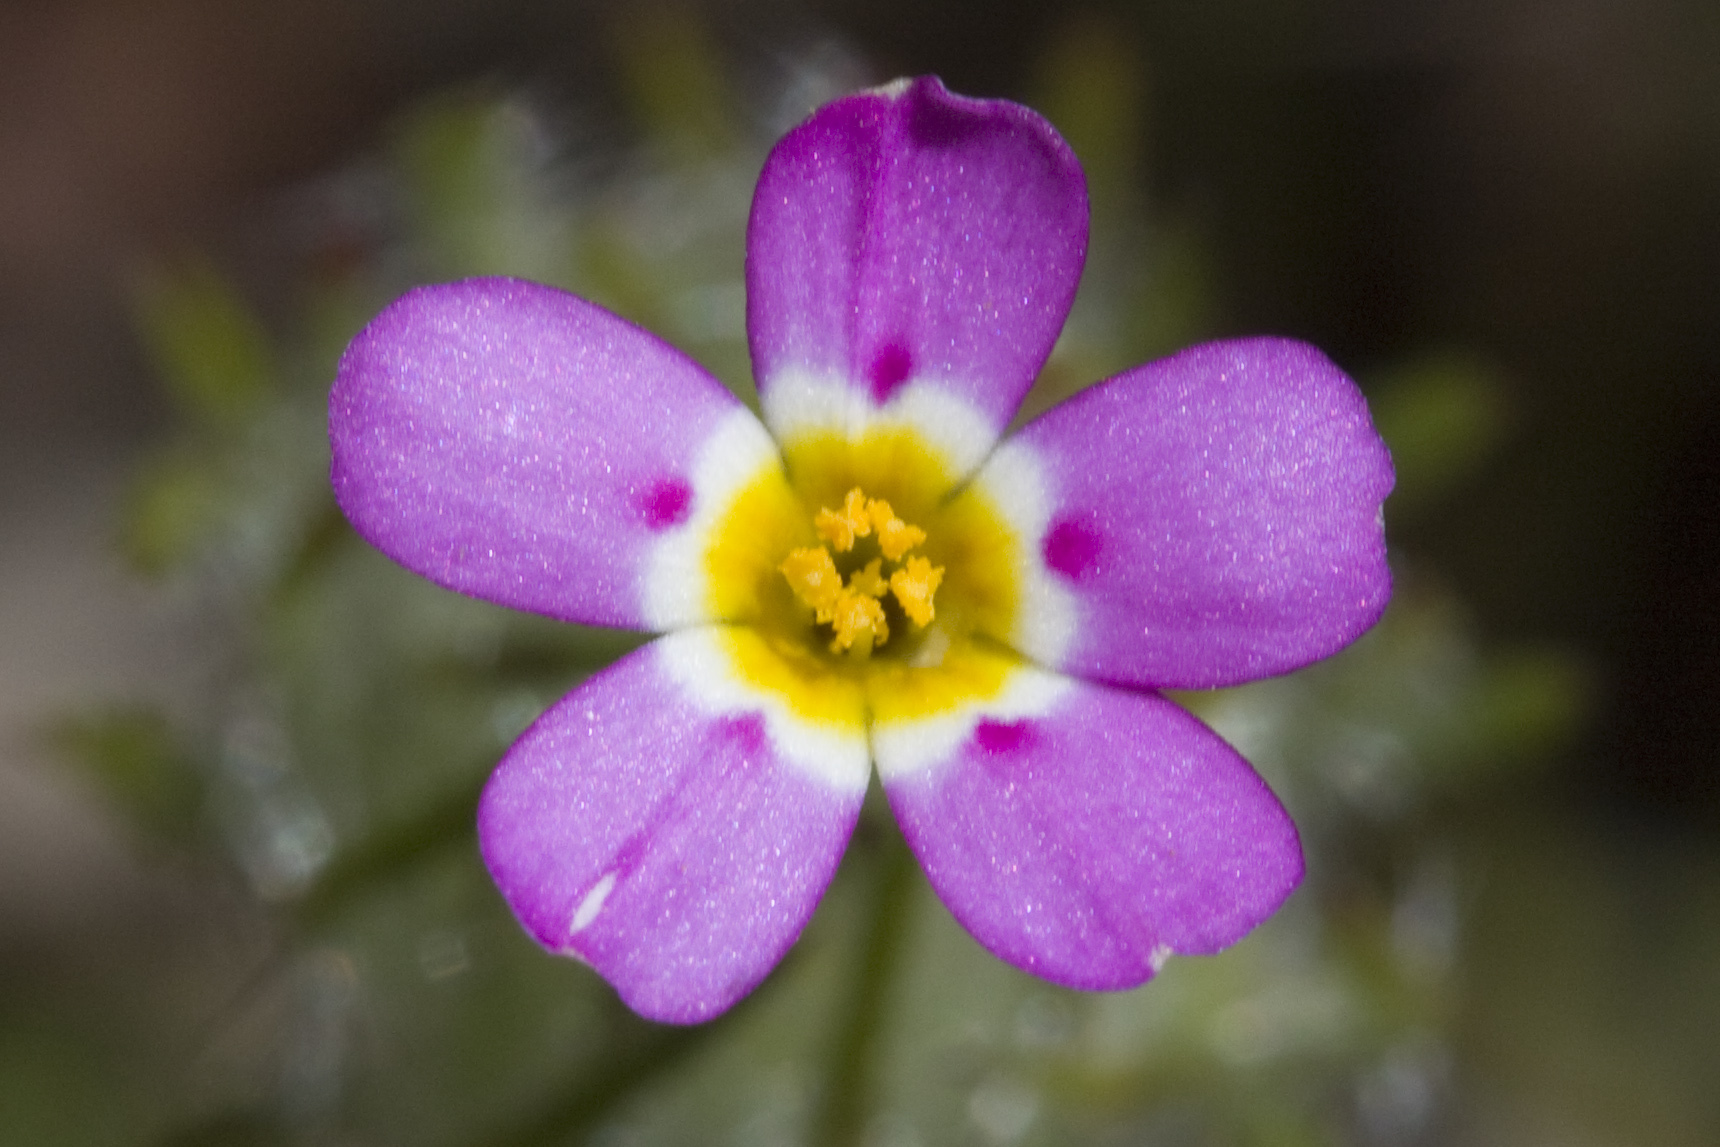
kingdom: Plantae
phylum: Tracheophyta
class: Magnoliopsida
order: Ericales
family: Polemoniaceae
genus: Leptosiphon
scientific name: Leptosiphon ciliatus
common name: Whiskerbrush
